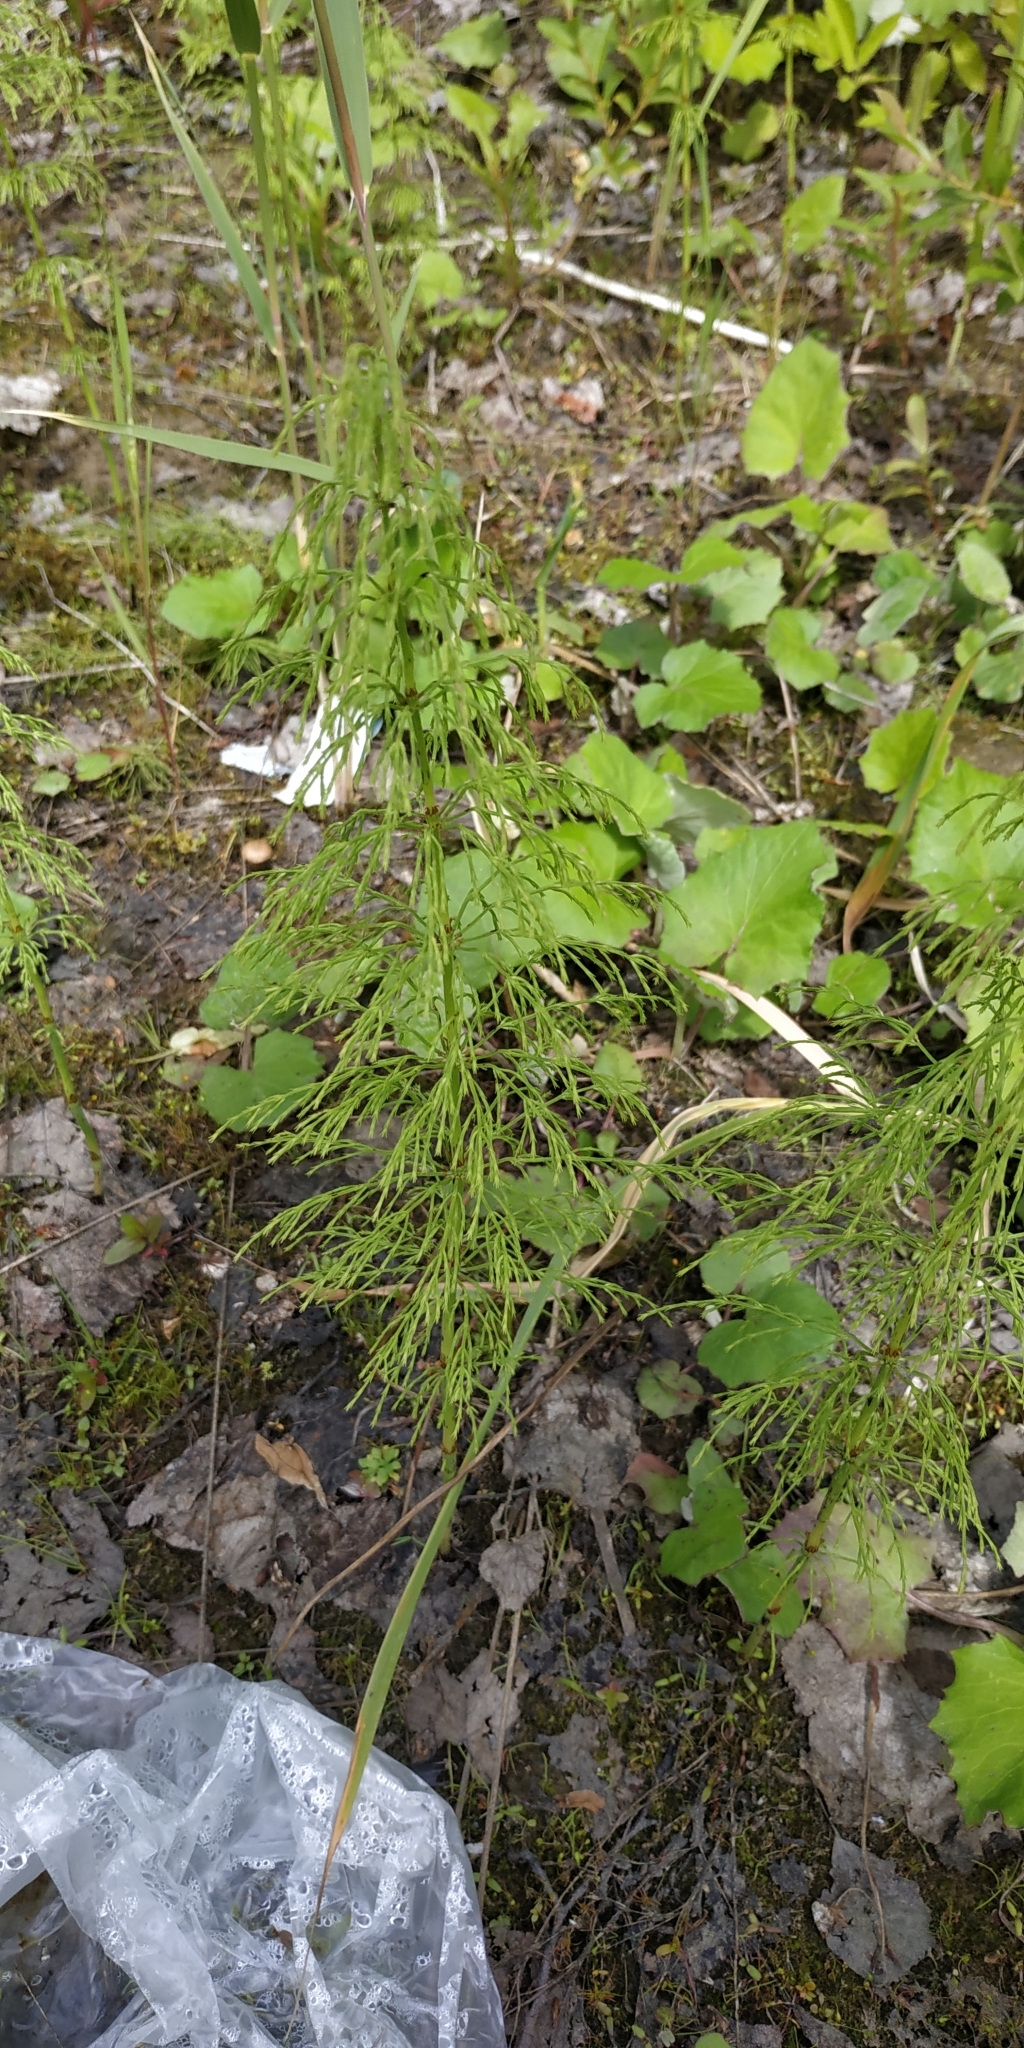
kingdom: Plantae
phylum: Tracheophyta
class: Polypodiopsida
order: Equisetales
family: Equisetaceae
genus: Equisetum
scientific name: Equisetum sylvaticum
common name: Wood horsetail
